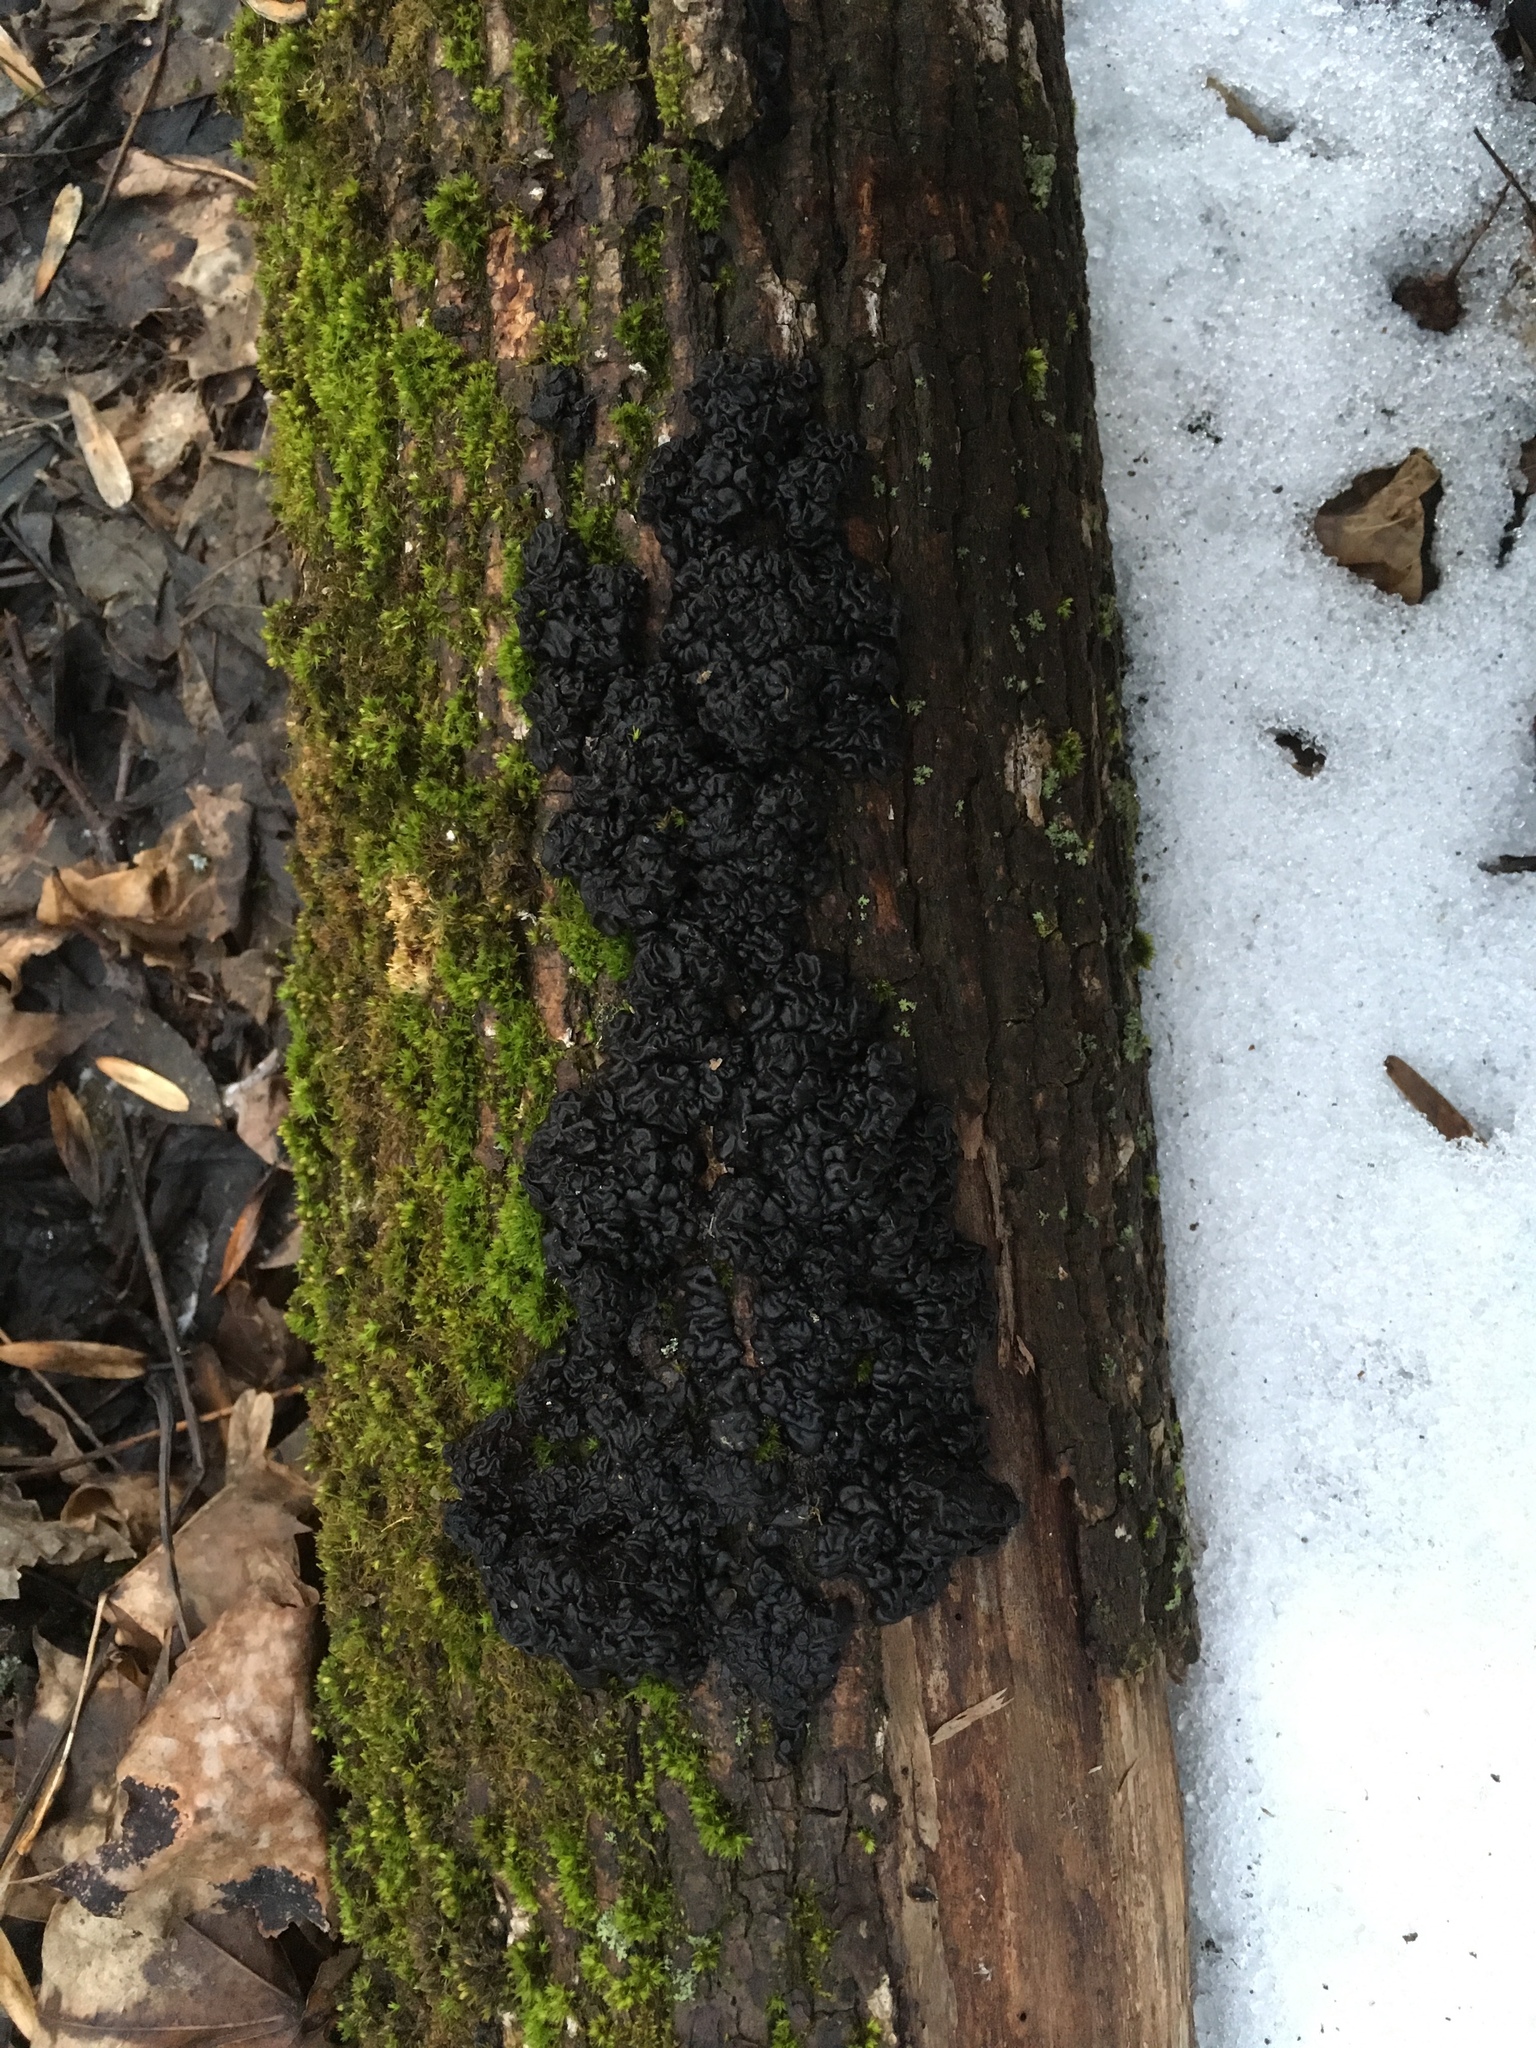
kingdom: Fungi
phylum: Basidiomycota
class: Agaricomycetes
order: Auriculariales
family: Auriculariaceae
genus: Exidia
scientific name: Exidia glandulosa
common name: Witches' butter
